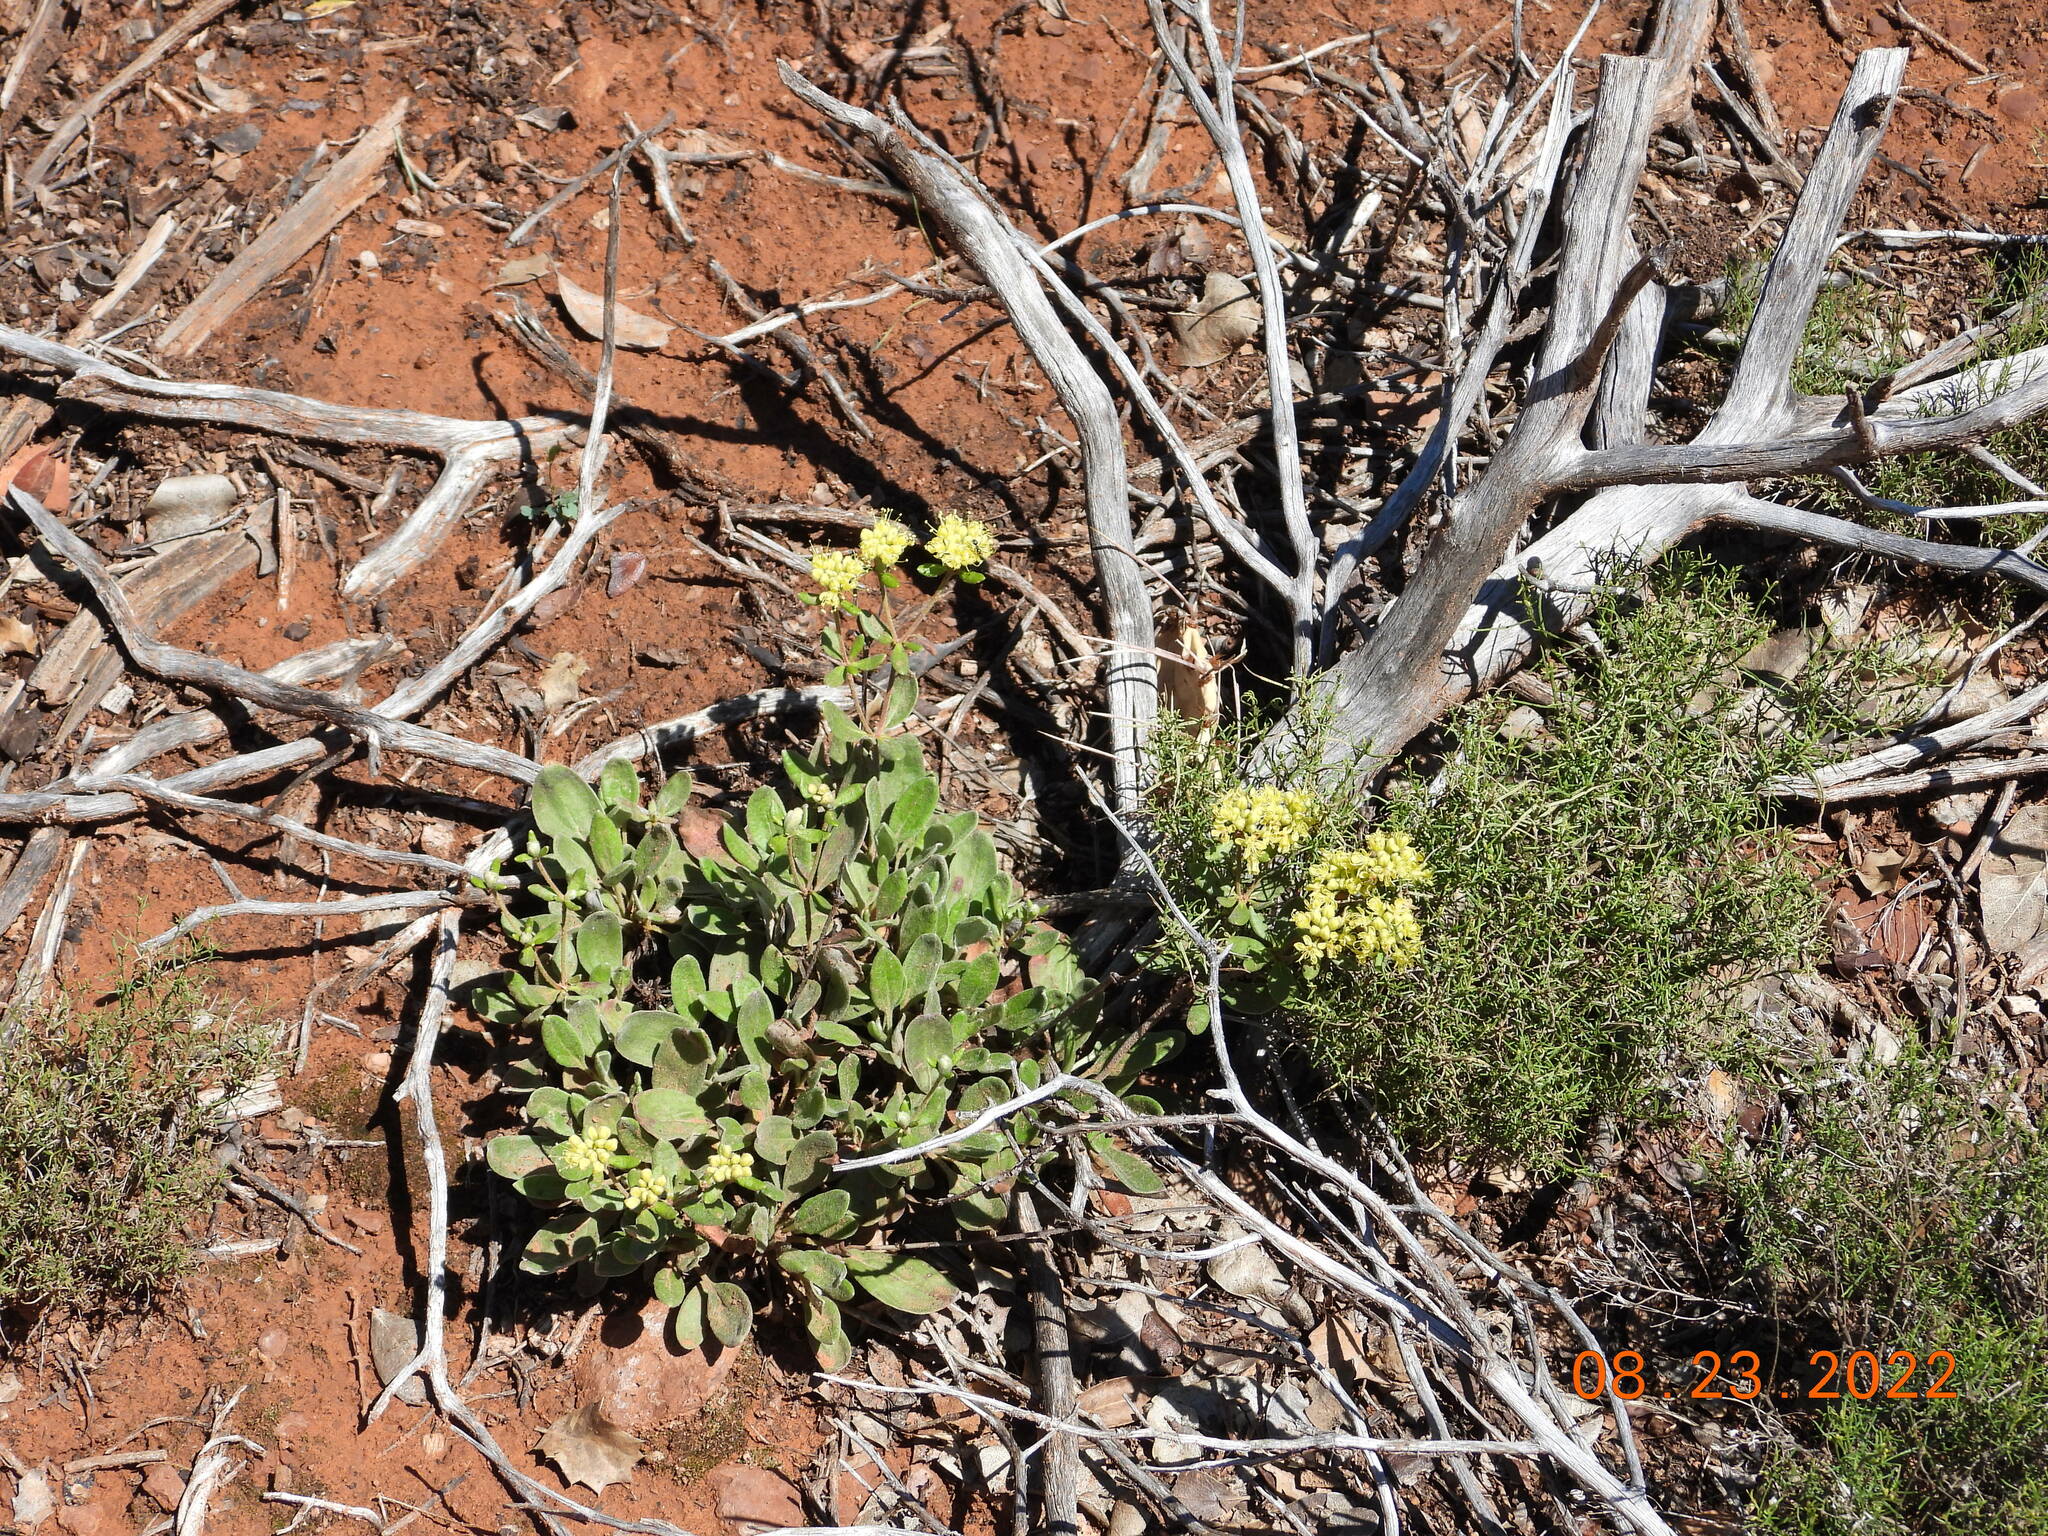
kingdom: Plantae
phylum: Tracheophyta
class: Magnoliopsida
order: Caryophyllales
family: Polygonaceae
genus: Eriogonum
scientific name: Eriogonum umbellatum
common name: Sulfur-buckwheat
